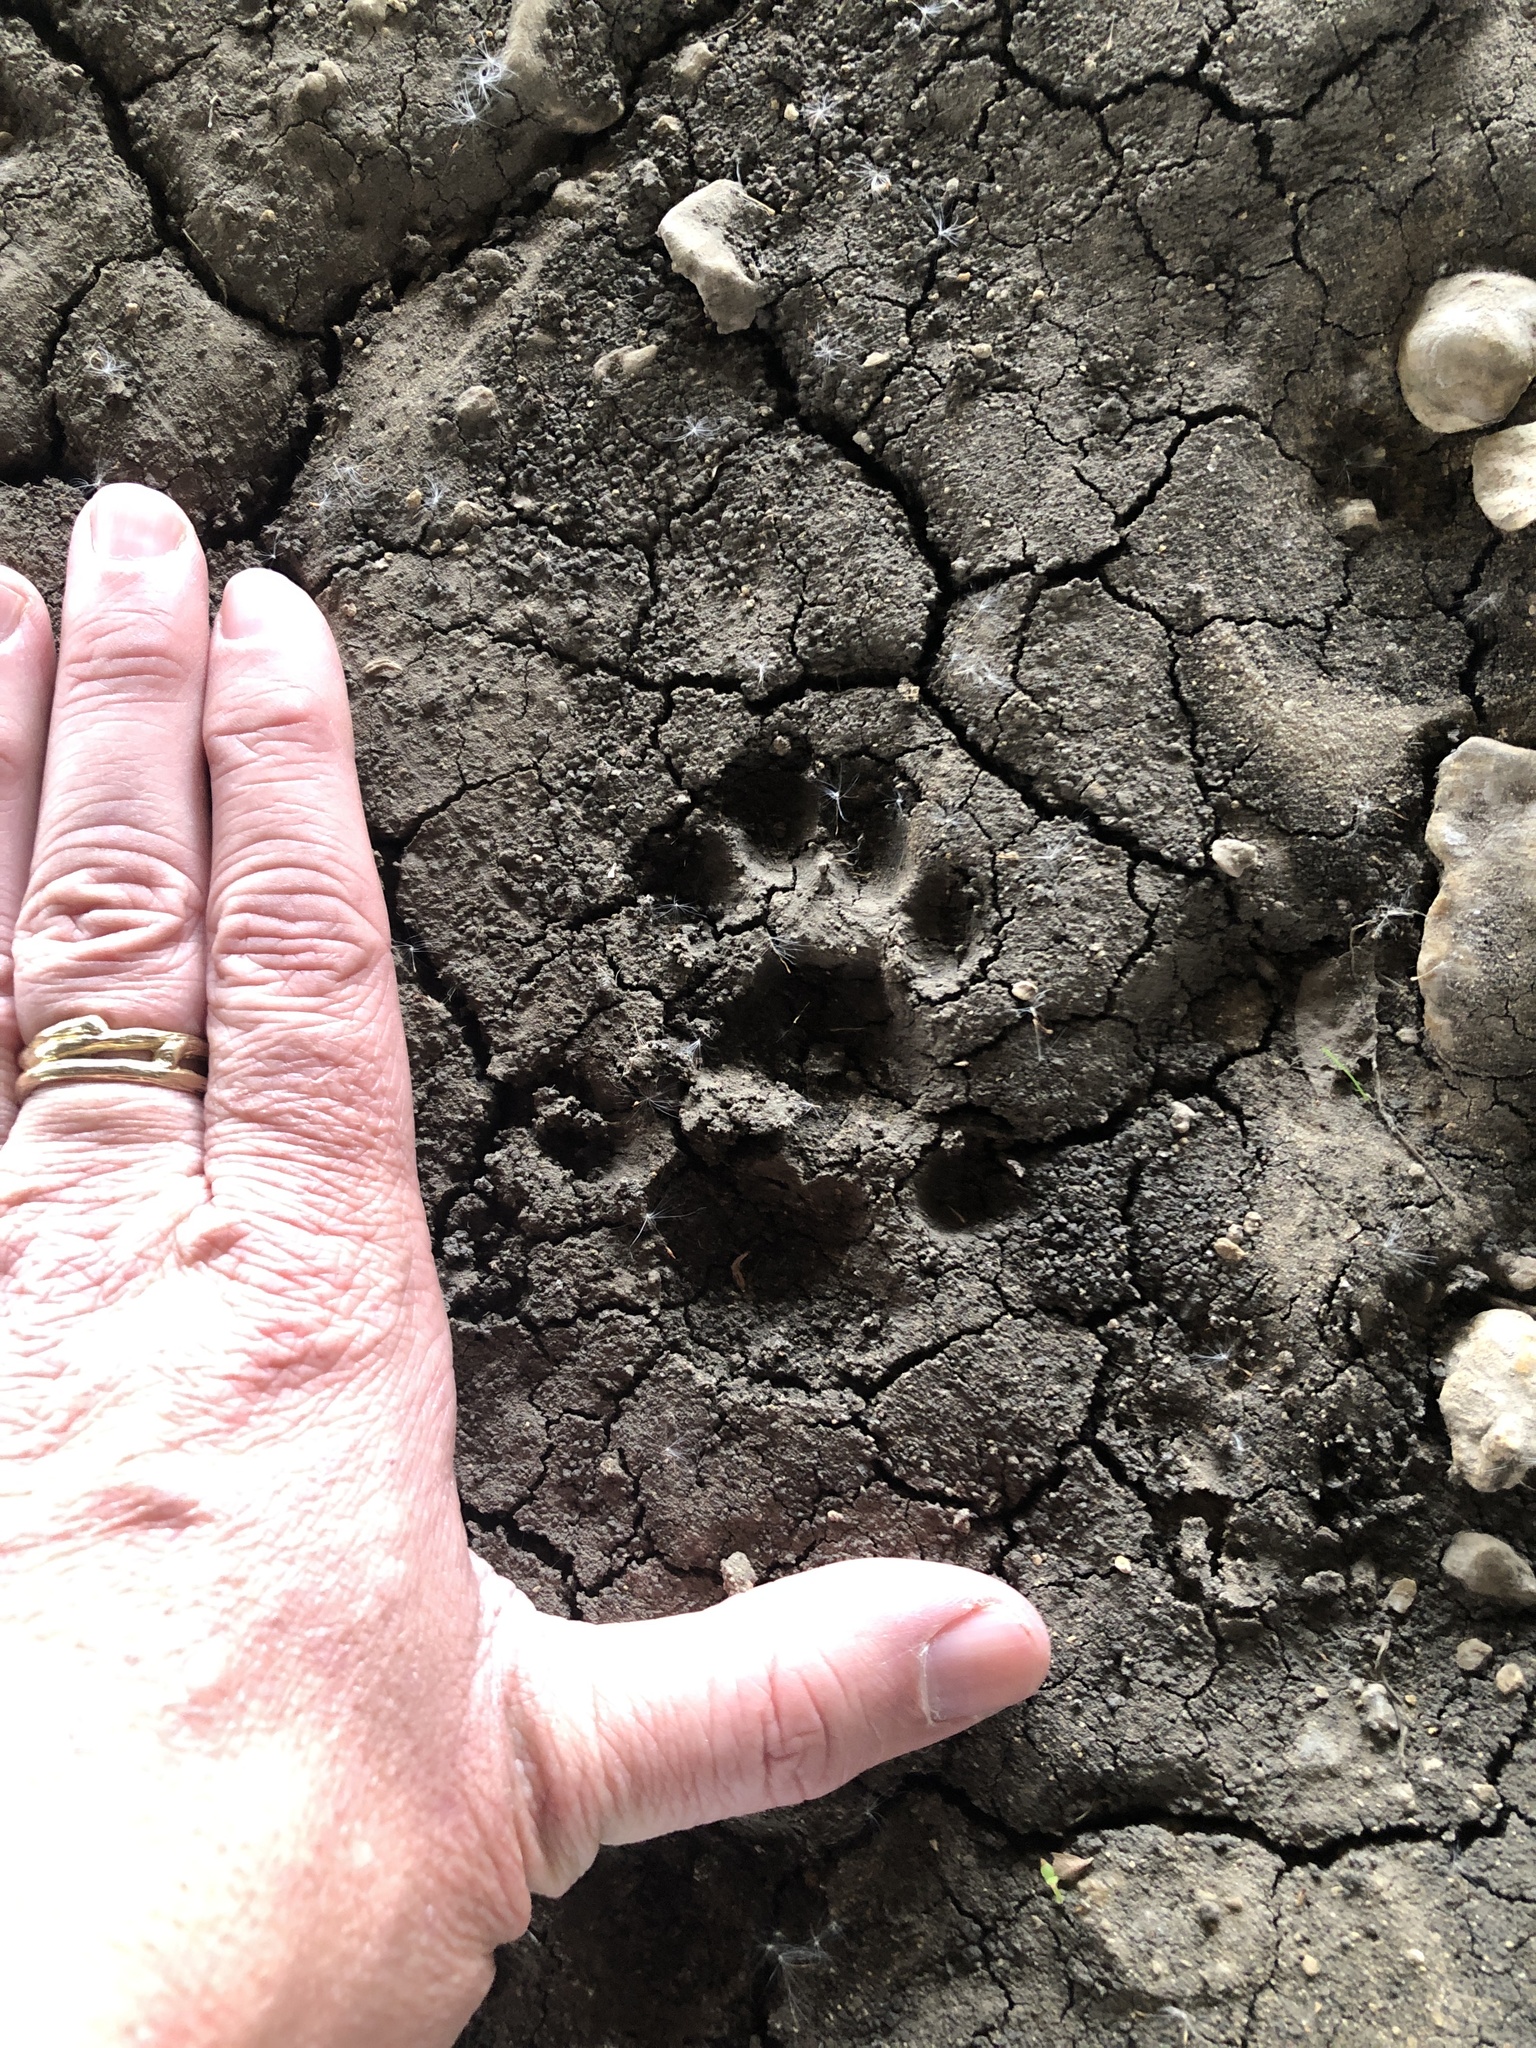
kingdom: Animalia
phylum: Chordata
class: Mammalia
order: Carnivora
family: Felidae
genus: Lynx
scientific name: Lynx rufus
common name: Bobcat
